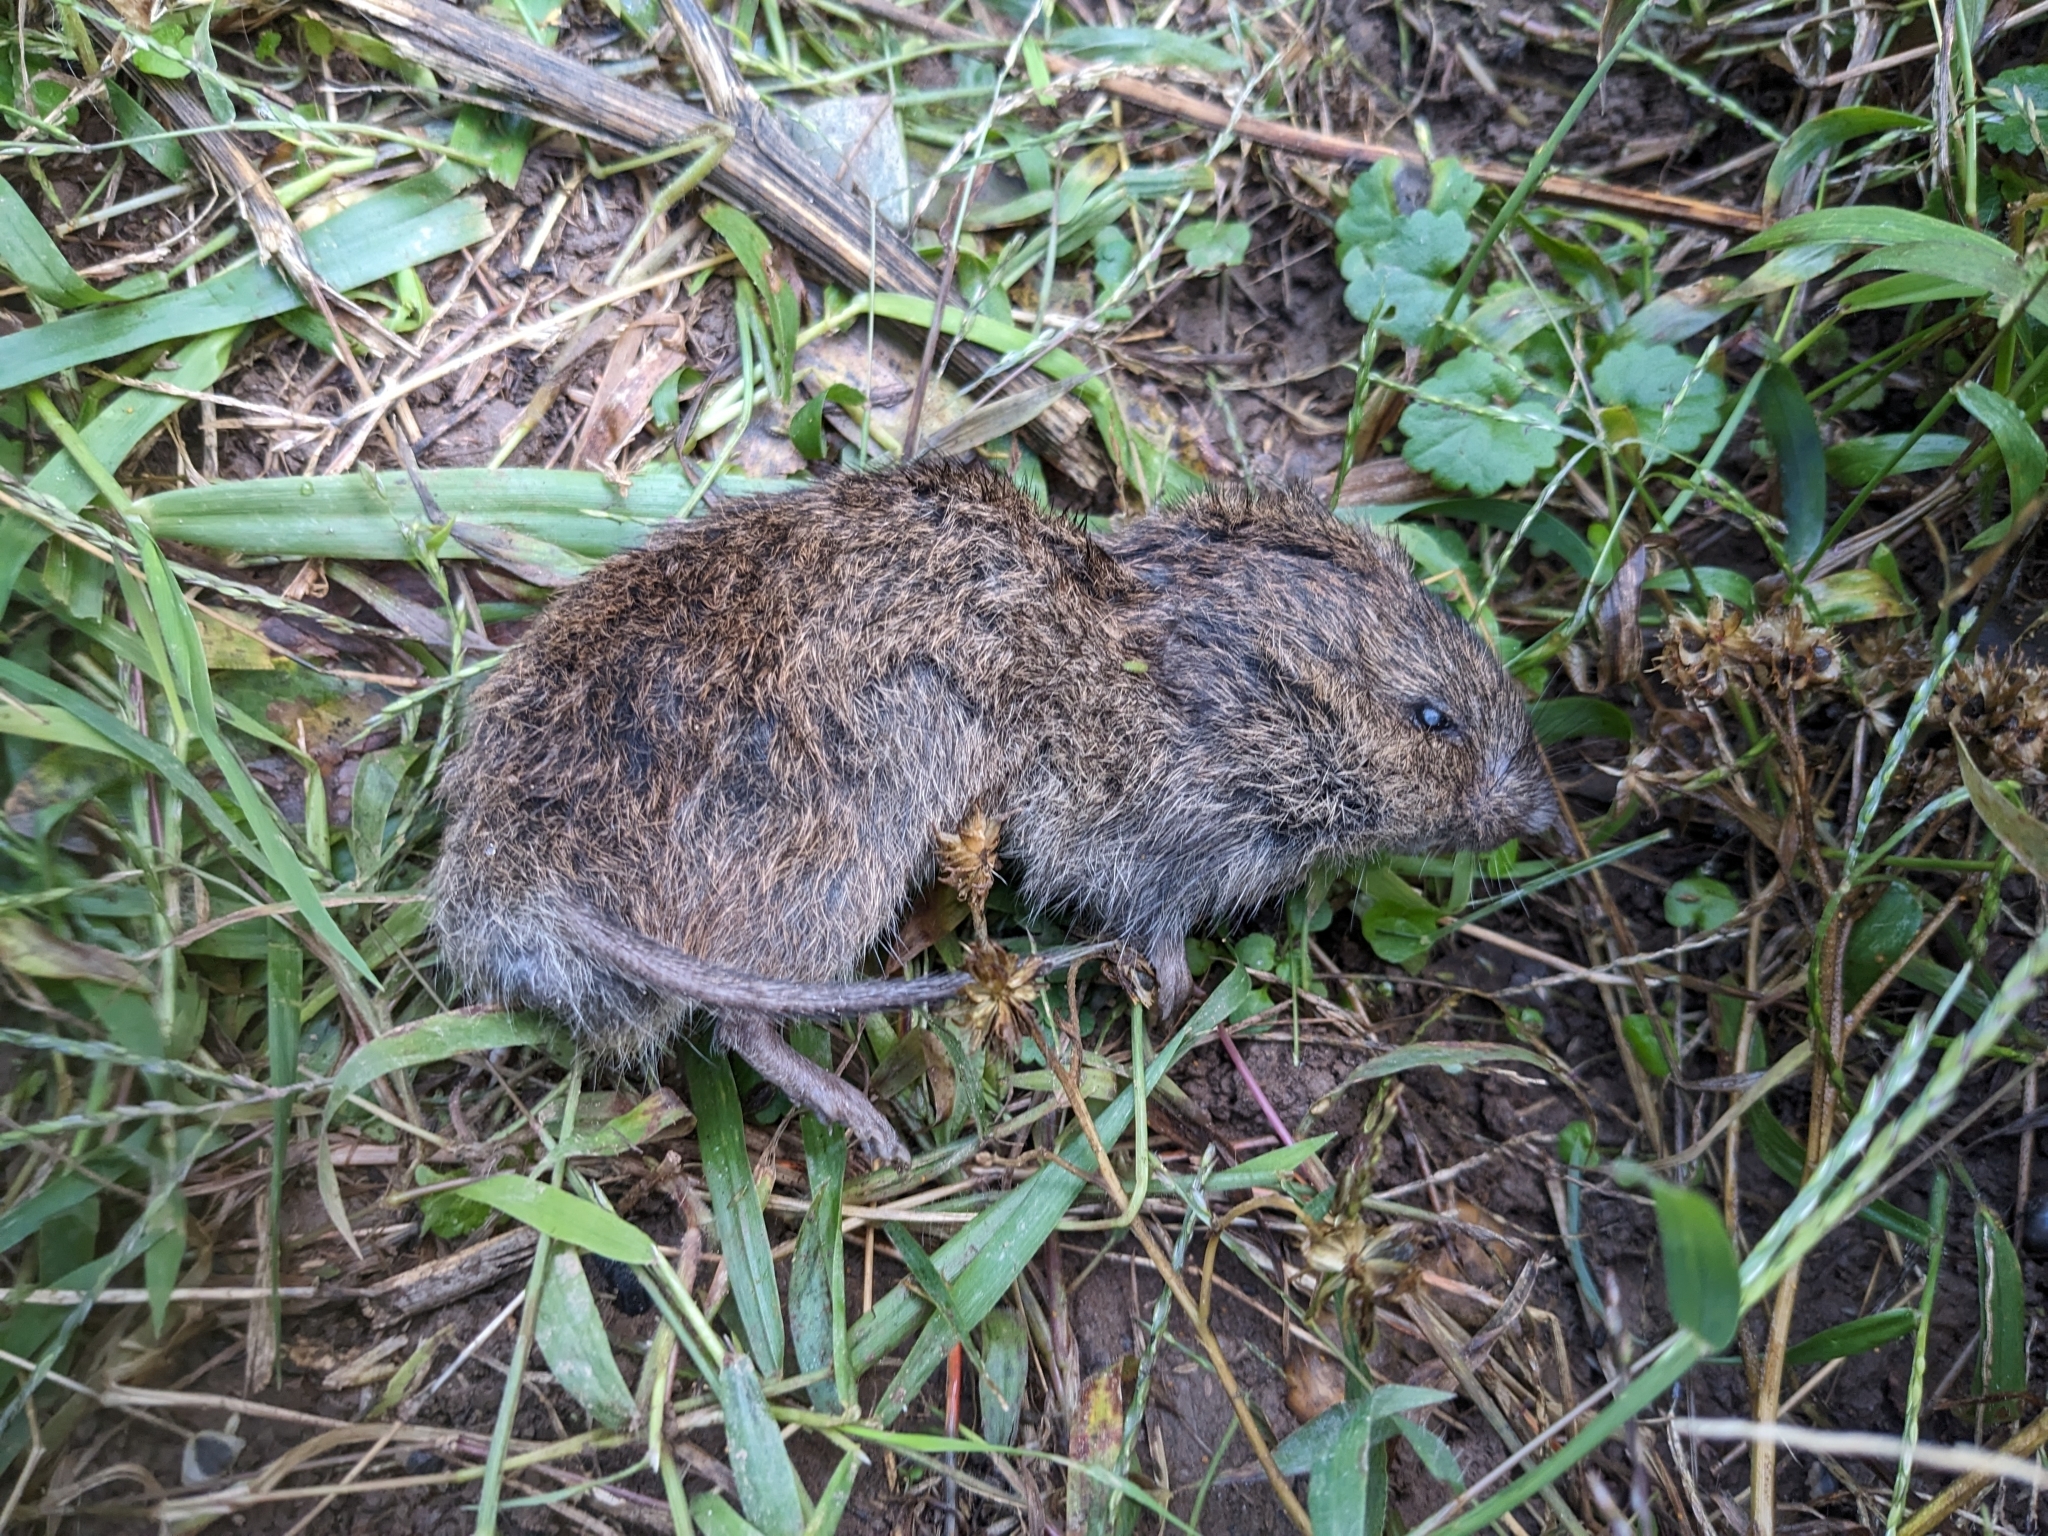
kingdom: Animalia
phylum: Chordata
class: Mammalia
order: Rodentia
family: Cricetidae
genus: Microtus
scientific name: Microtus pennsylvanicus
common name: Meadow vole
